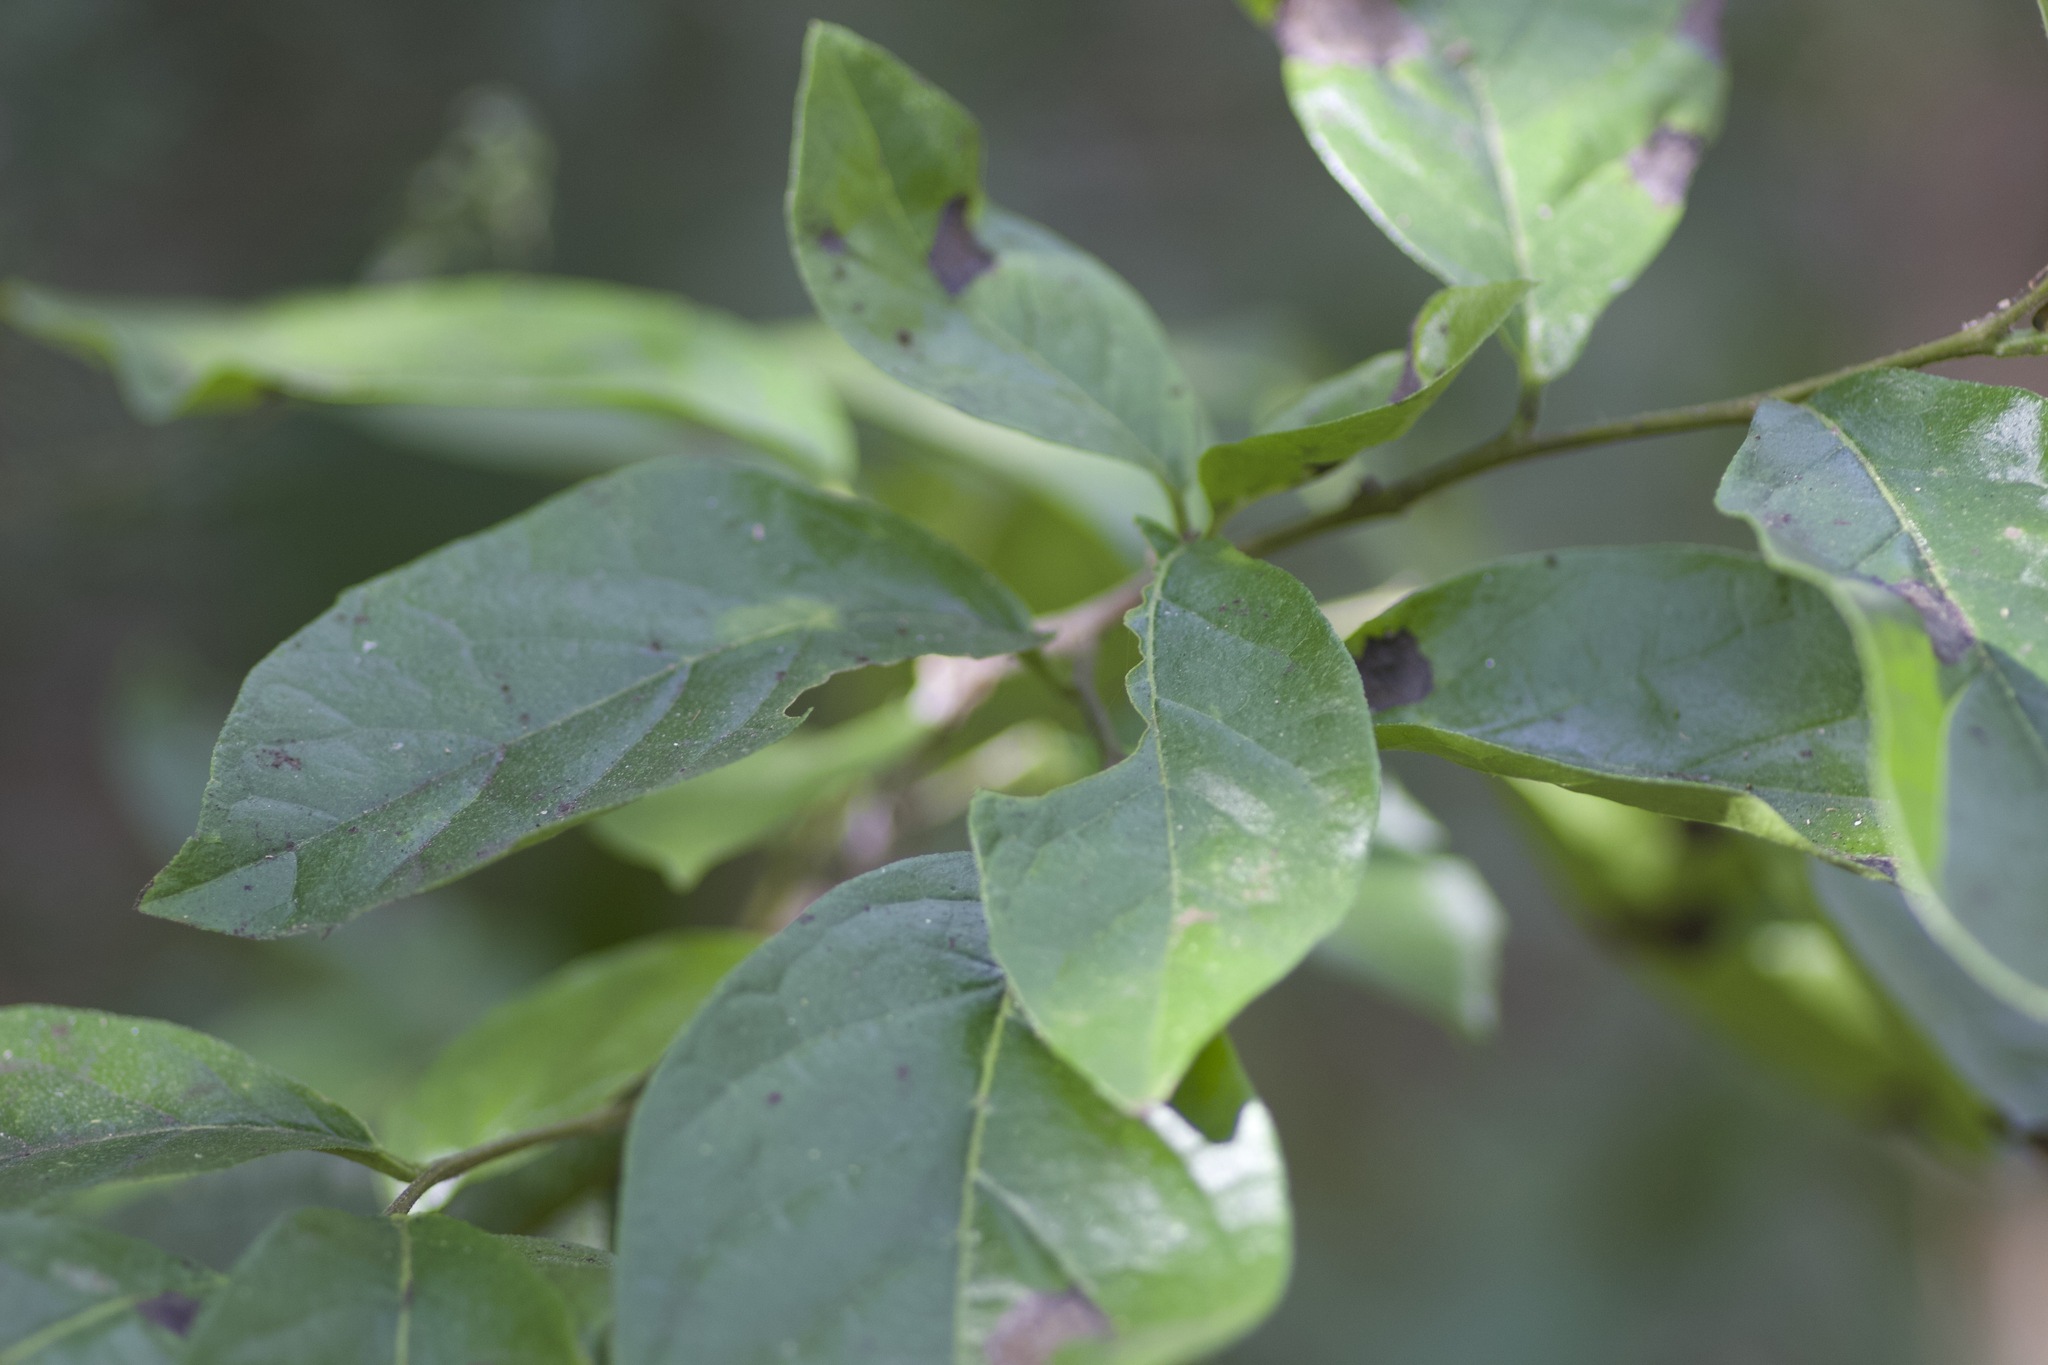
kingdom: Plantae
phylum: Tracheophyta
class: Magnoliopsida
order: Boraginales
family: Ehretiaceae
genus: Ehretia
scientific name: Ehretia anacua
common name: Sugarberry
